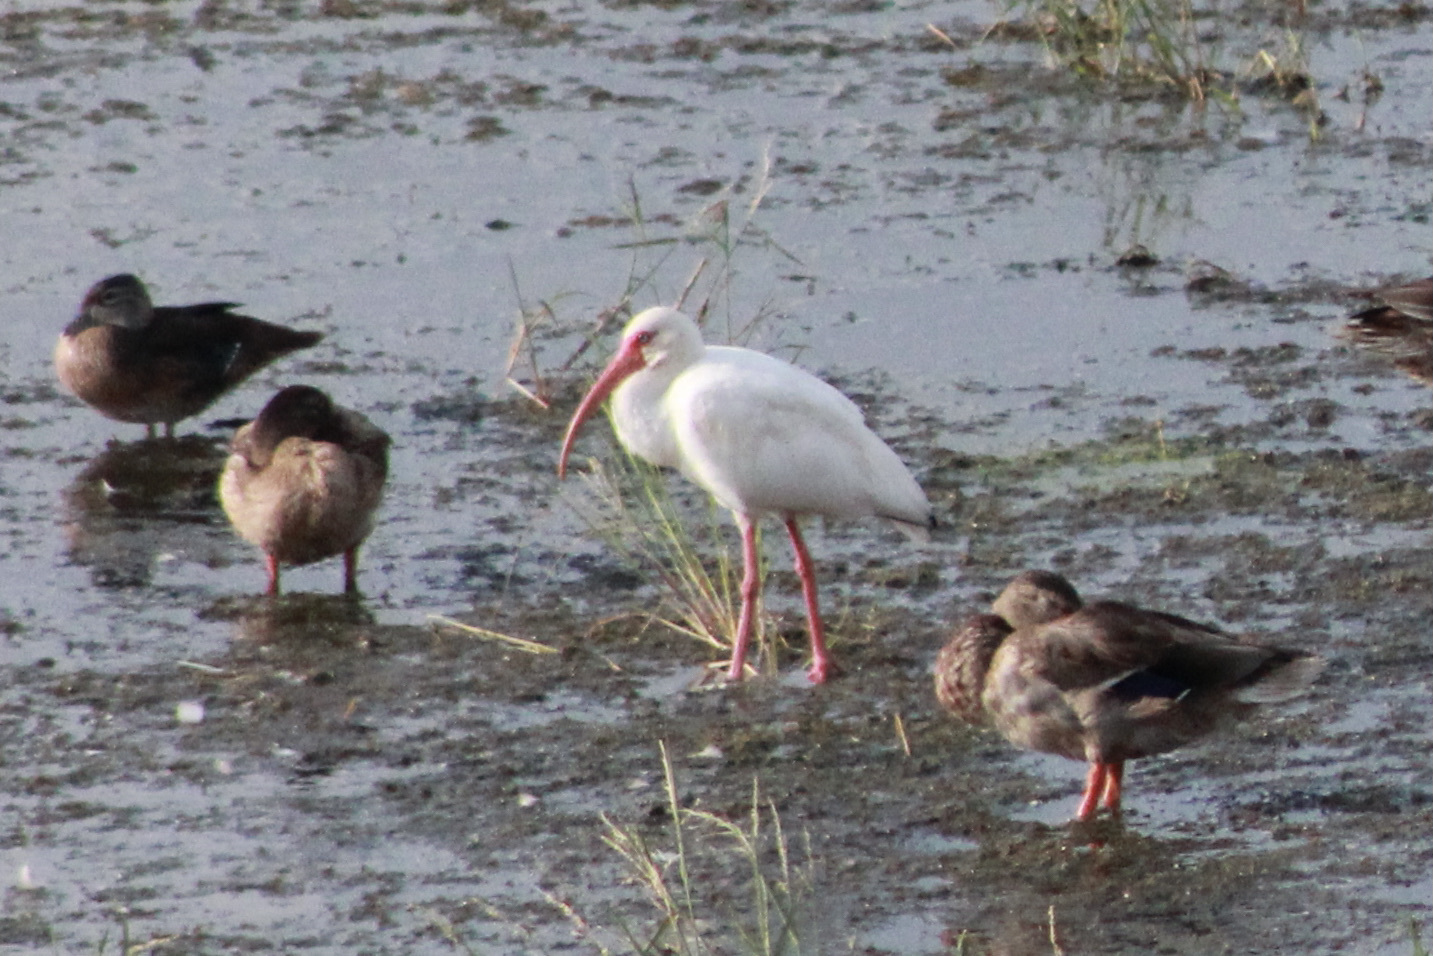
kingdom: Animalia
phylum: Chordata
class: Aves
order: Pelecaniformes
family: Threskiornithidae
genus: Eudocimus
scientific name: Eudocimus albus
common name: White ibis
